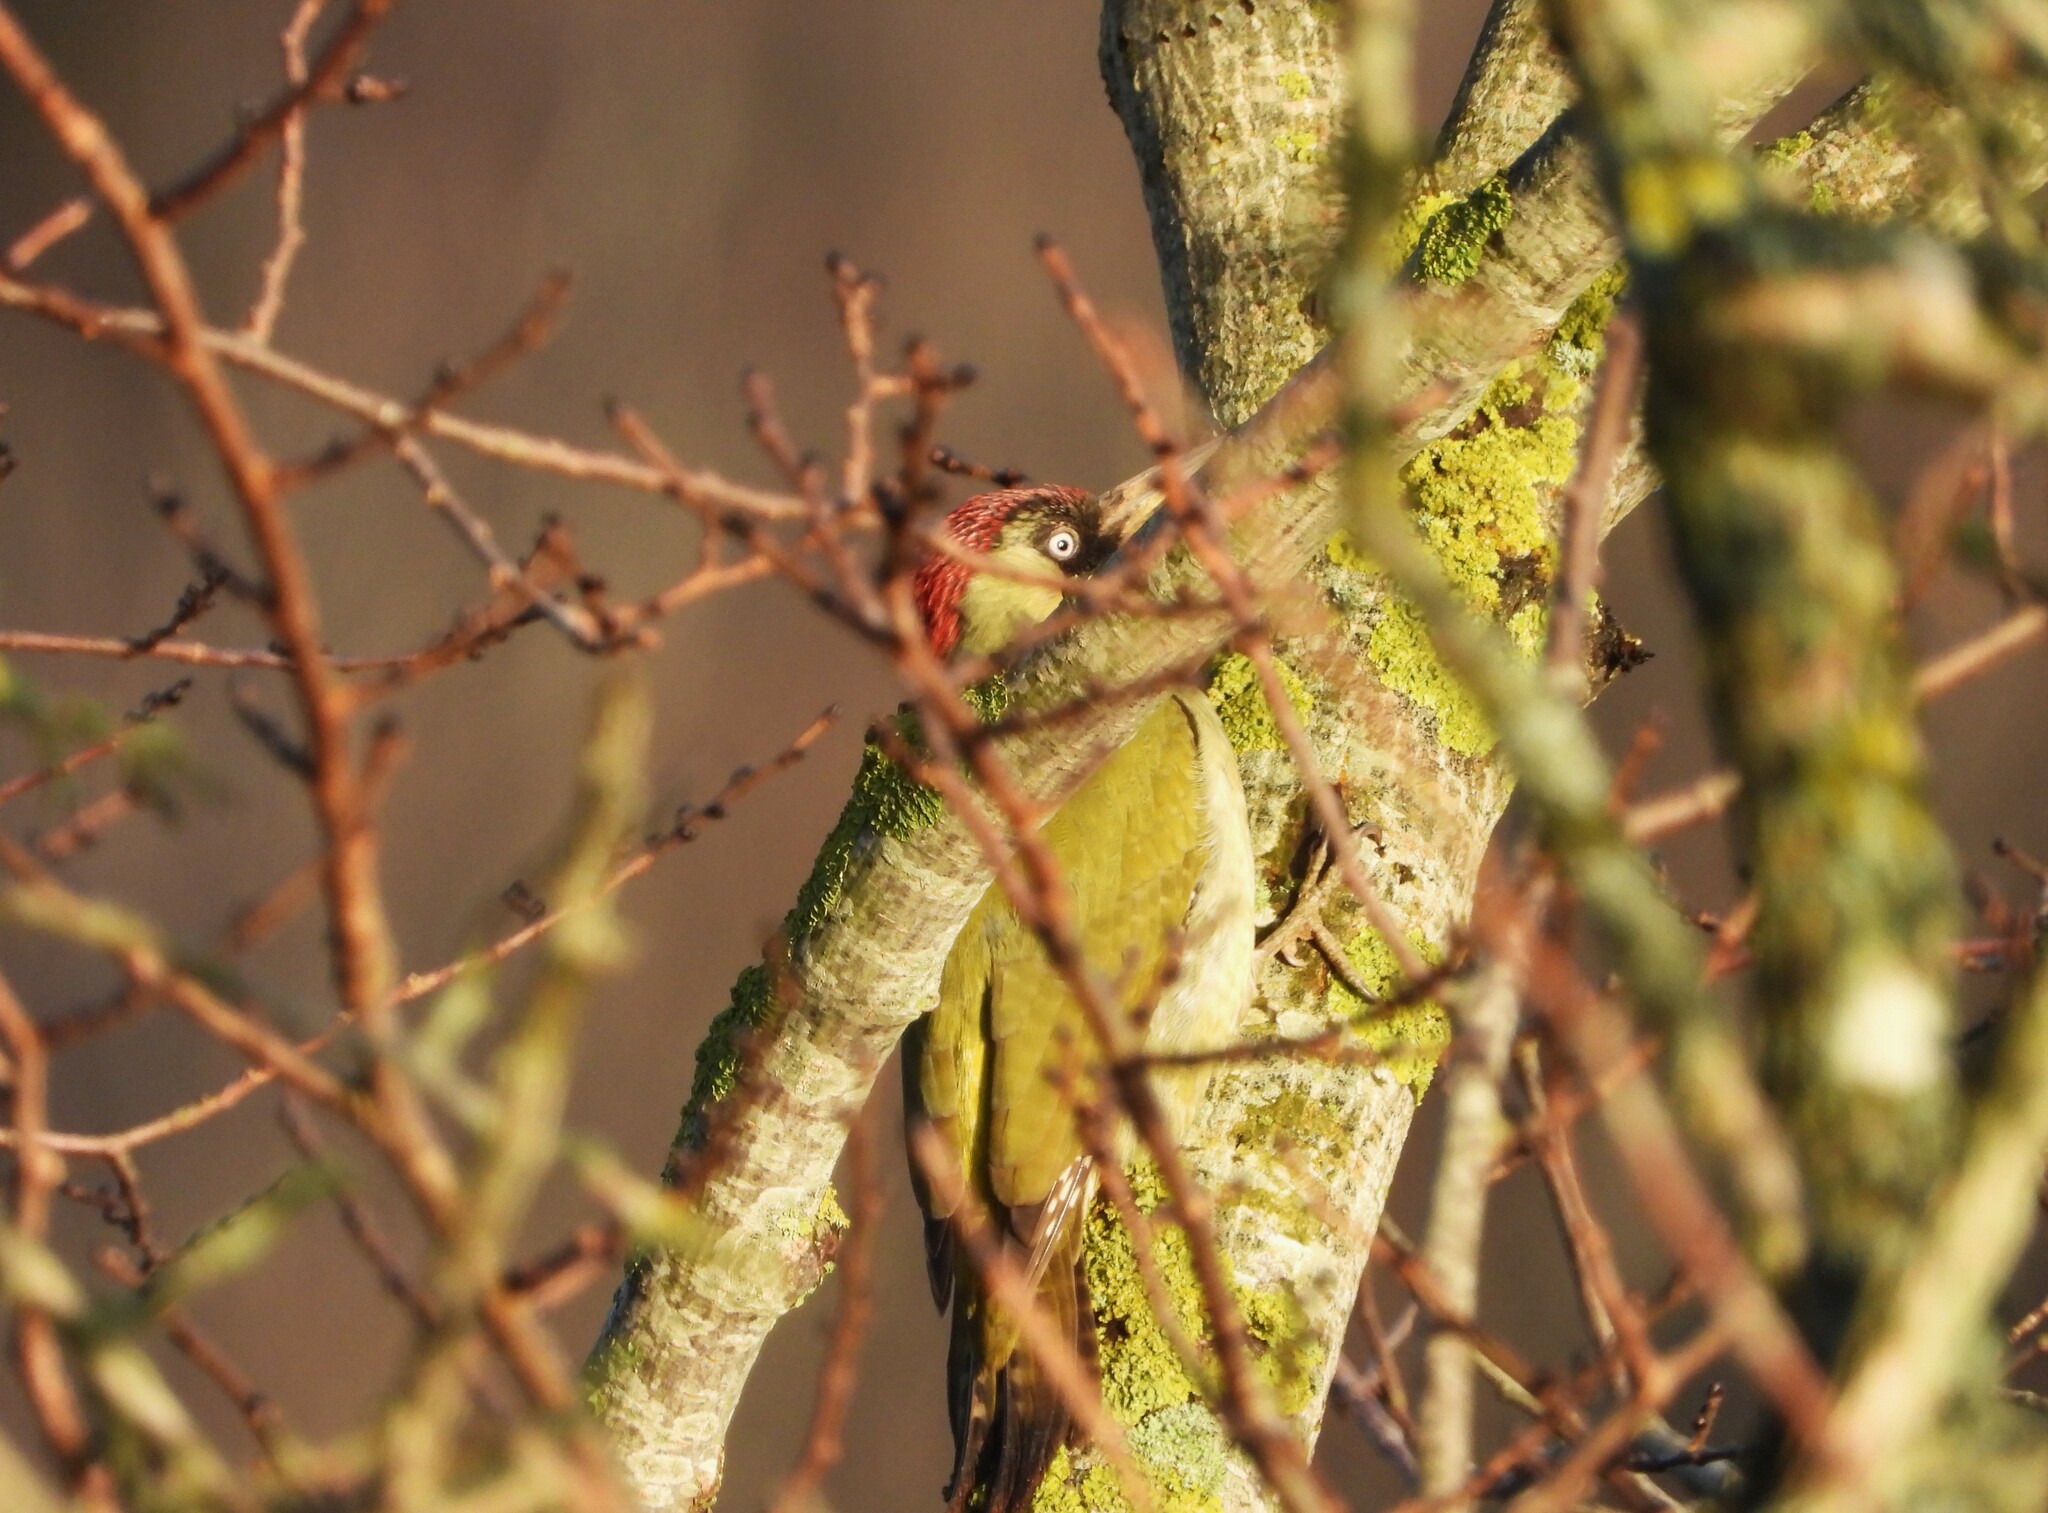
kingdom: Animalia
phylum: Chordata
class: Aves
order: Piciformes
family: Picidae
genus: Picus
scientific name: Picus viridis
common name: European green woodpecker
